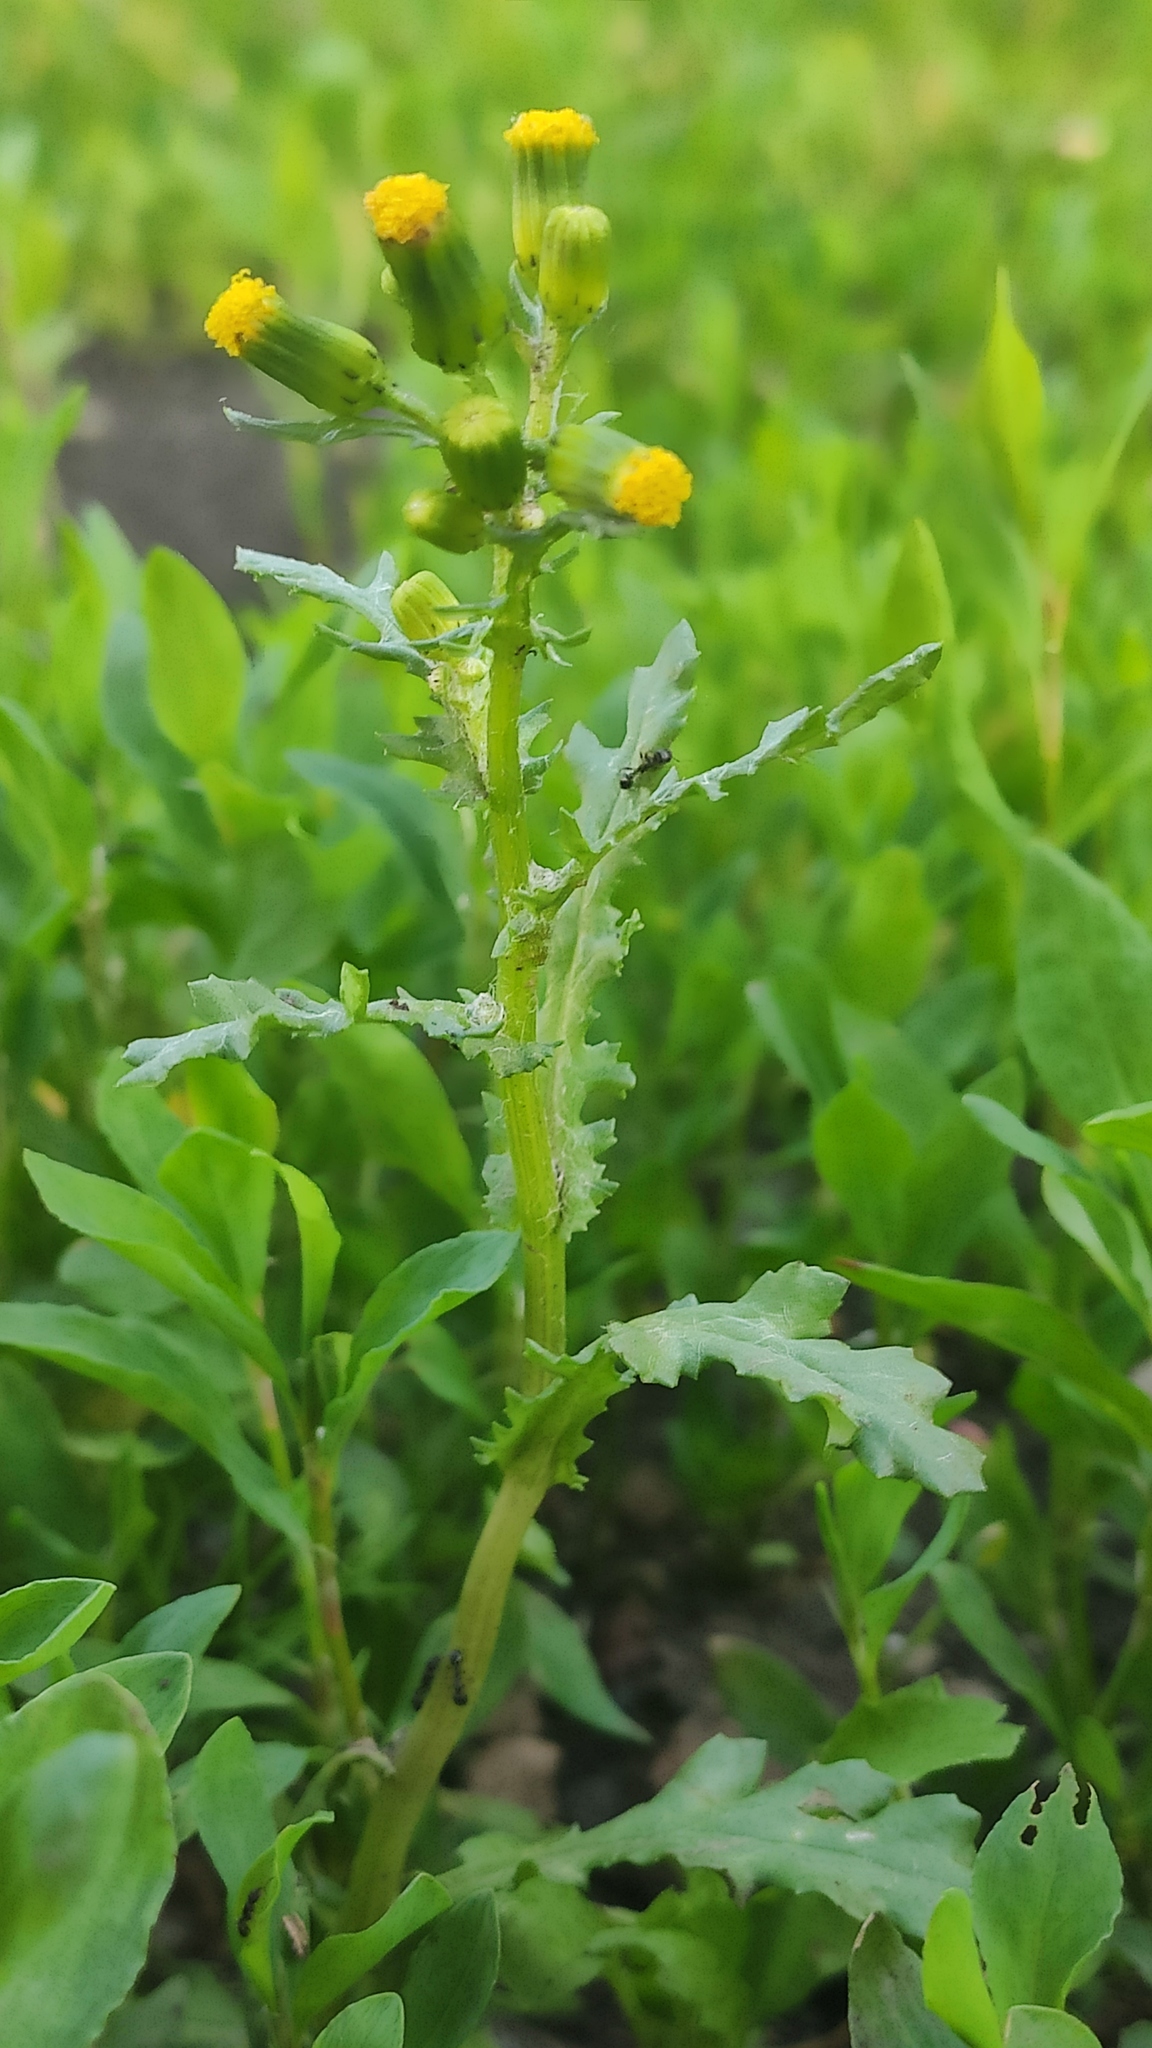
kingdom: Plantae
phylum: Tracheophyta
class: Magnoliopsida
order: Asterales
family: Asteraceae
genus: Senecio
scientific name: Senecio vulgaris
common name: Old-man-in-the-spring
